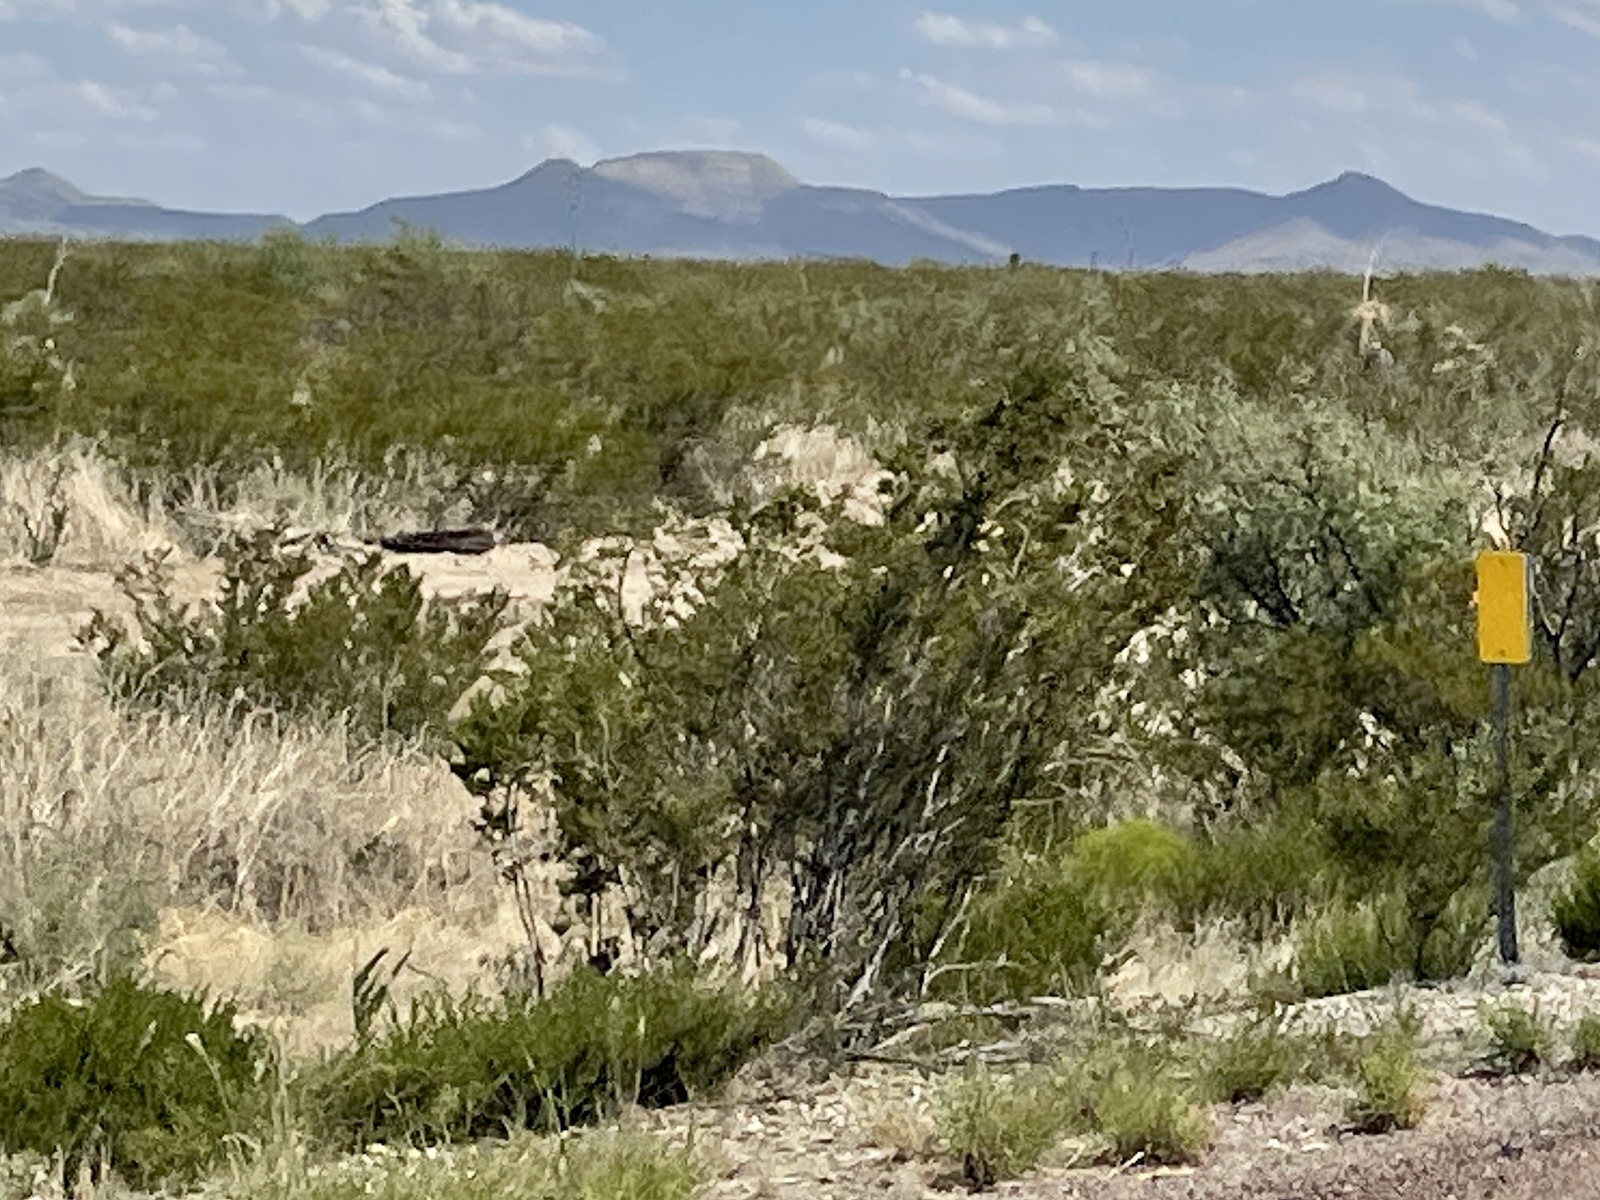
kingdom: Plantae
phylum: Tracheophyta
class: Magnoliopsida
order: Zygophyllales
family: Zygophyllaceae
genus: Larrea
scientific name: Larrea tridentata
